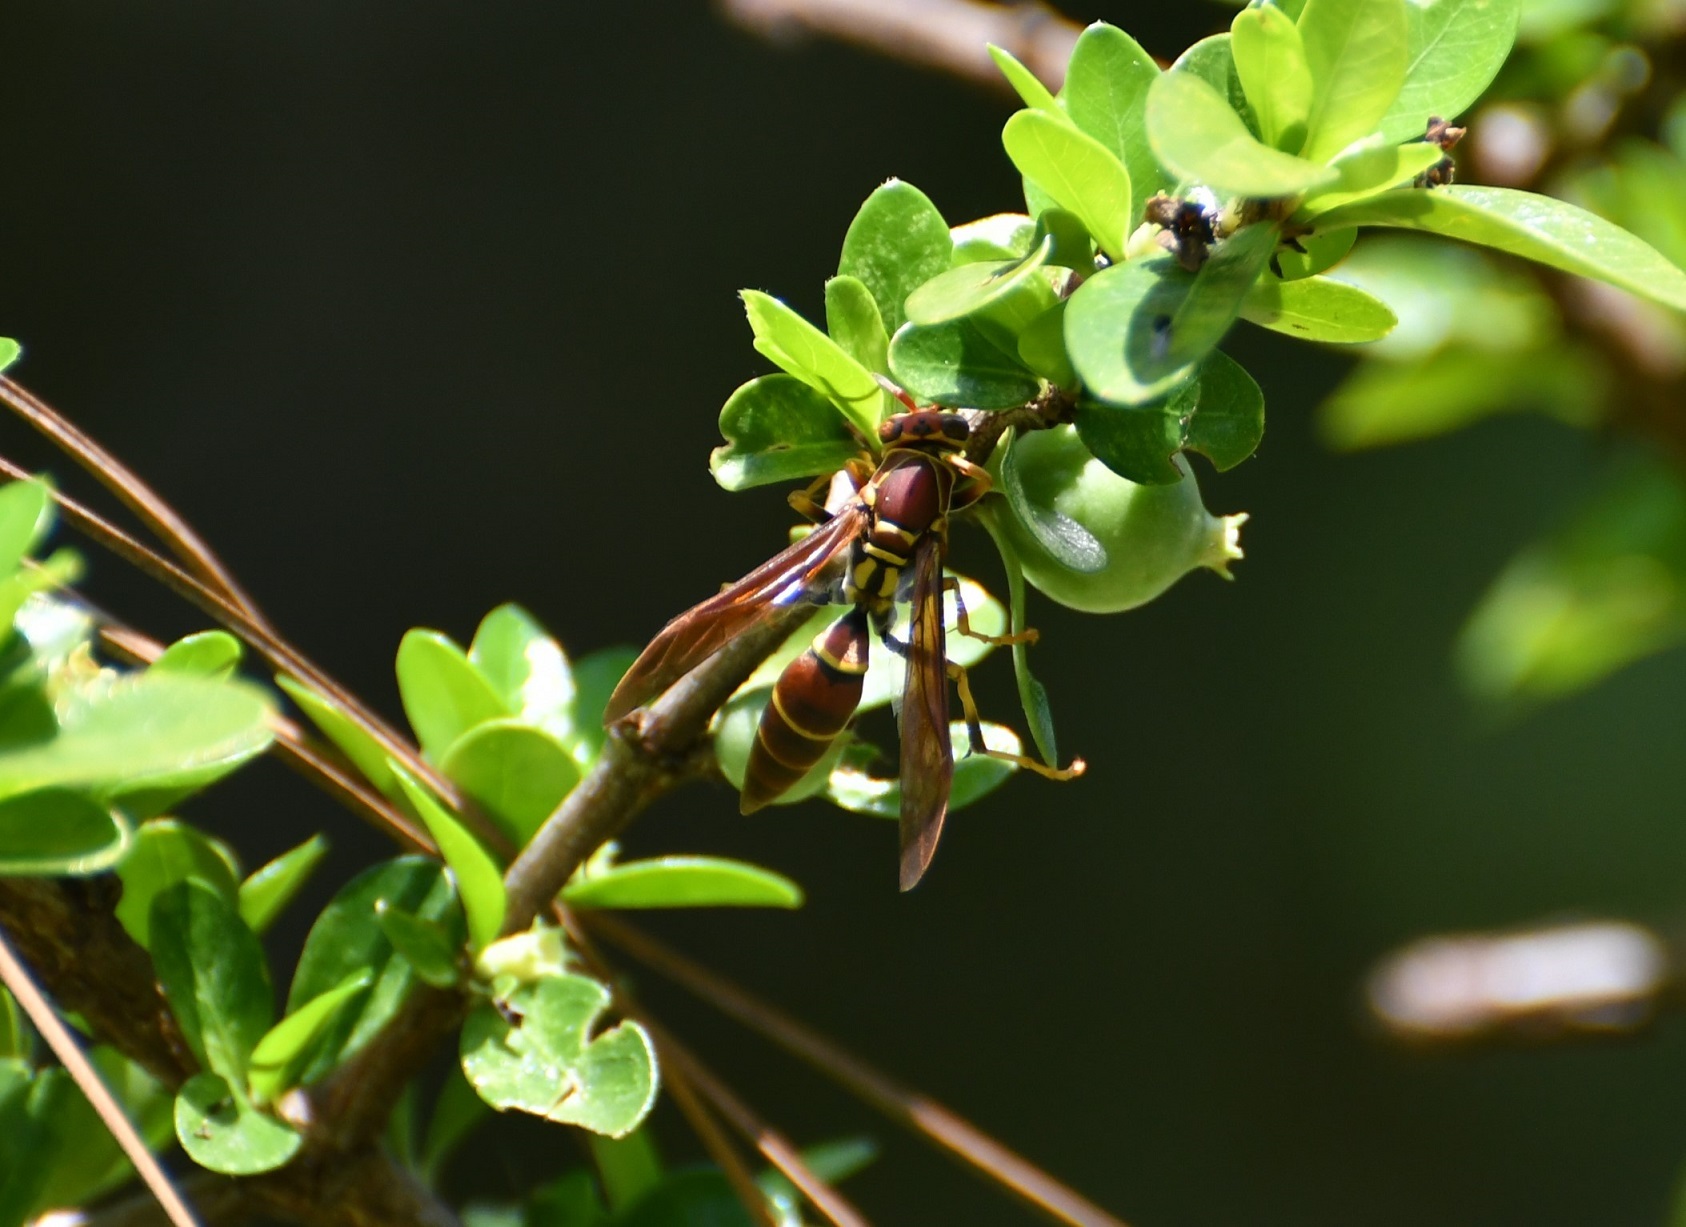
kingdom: Animalia
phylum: Arthropoda
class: Insecta
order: Hymenoptera
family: Eumenidae
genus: Polistes
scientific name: Polistes instabilis
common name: Unstable paper wasp
